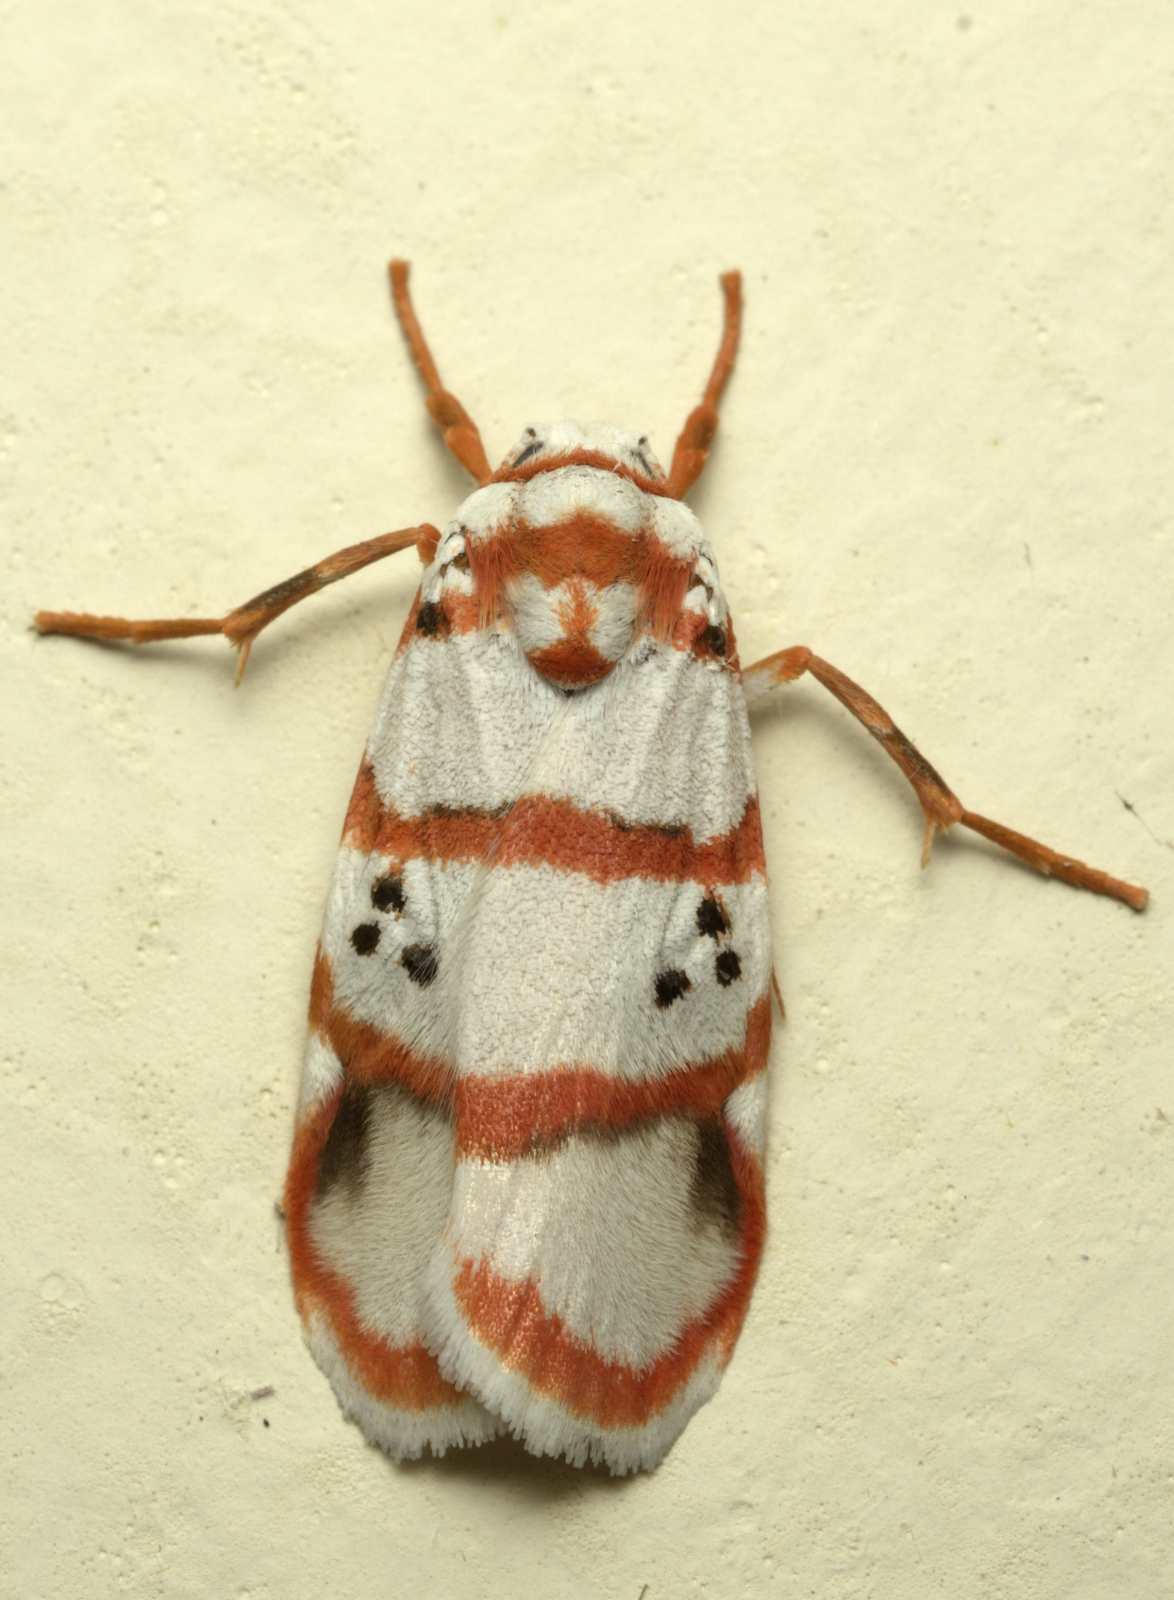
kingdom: Animalia
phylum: Arthropoda
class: Insecta
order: Lepidoptera
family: Erebidae
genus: Cyana
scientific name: Cyana peregrina
